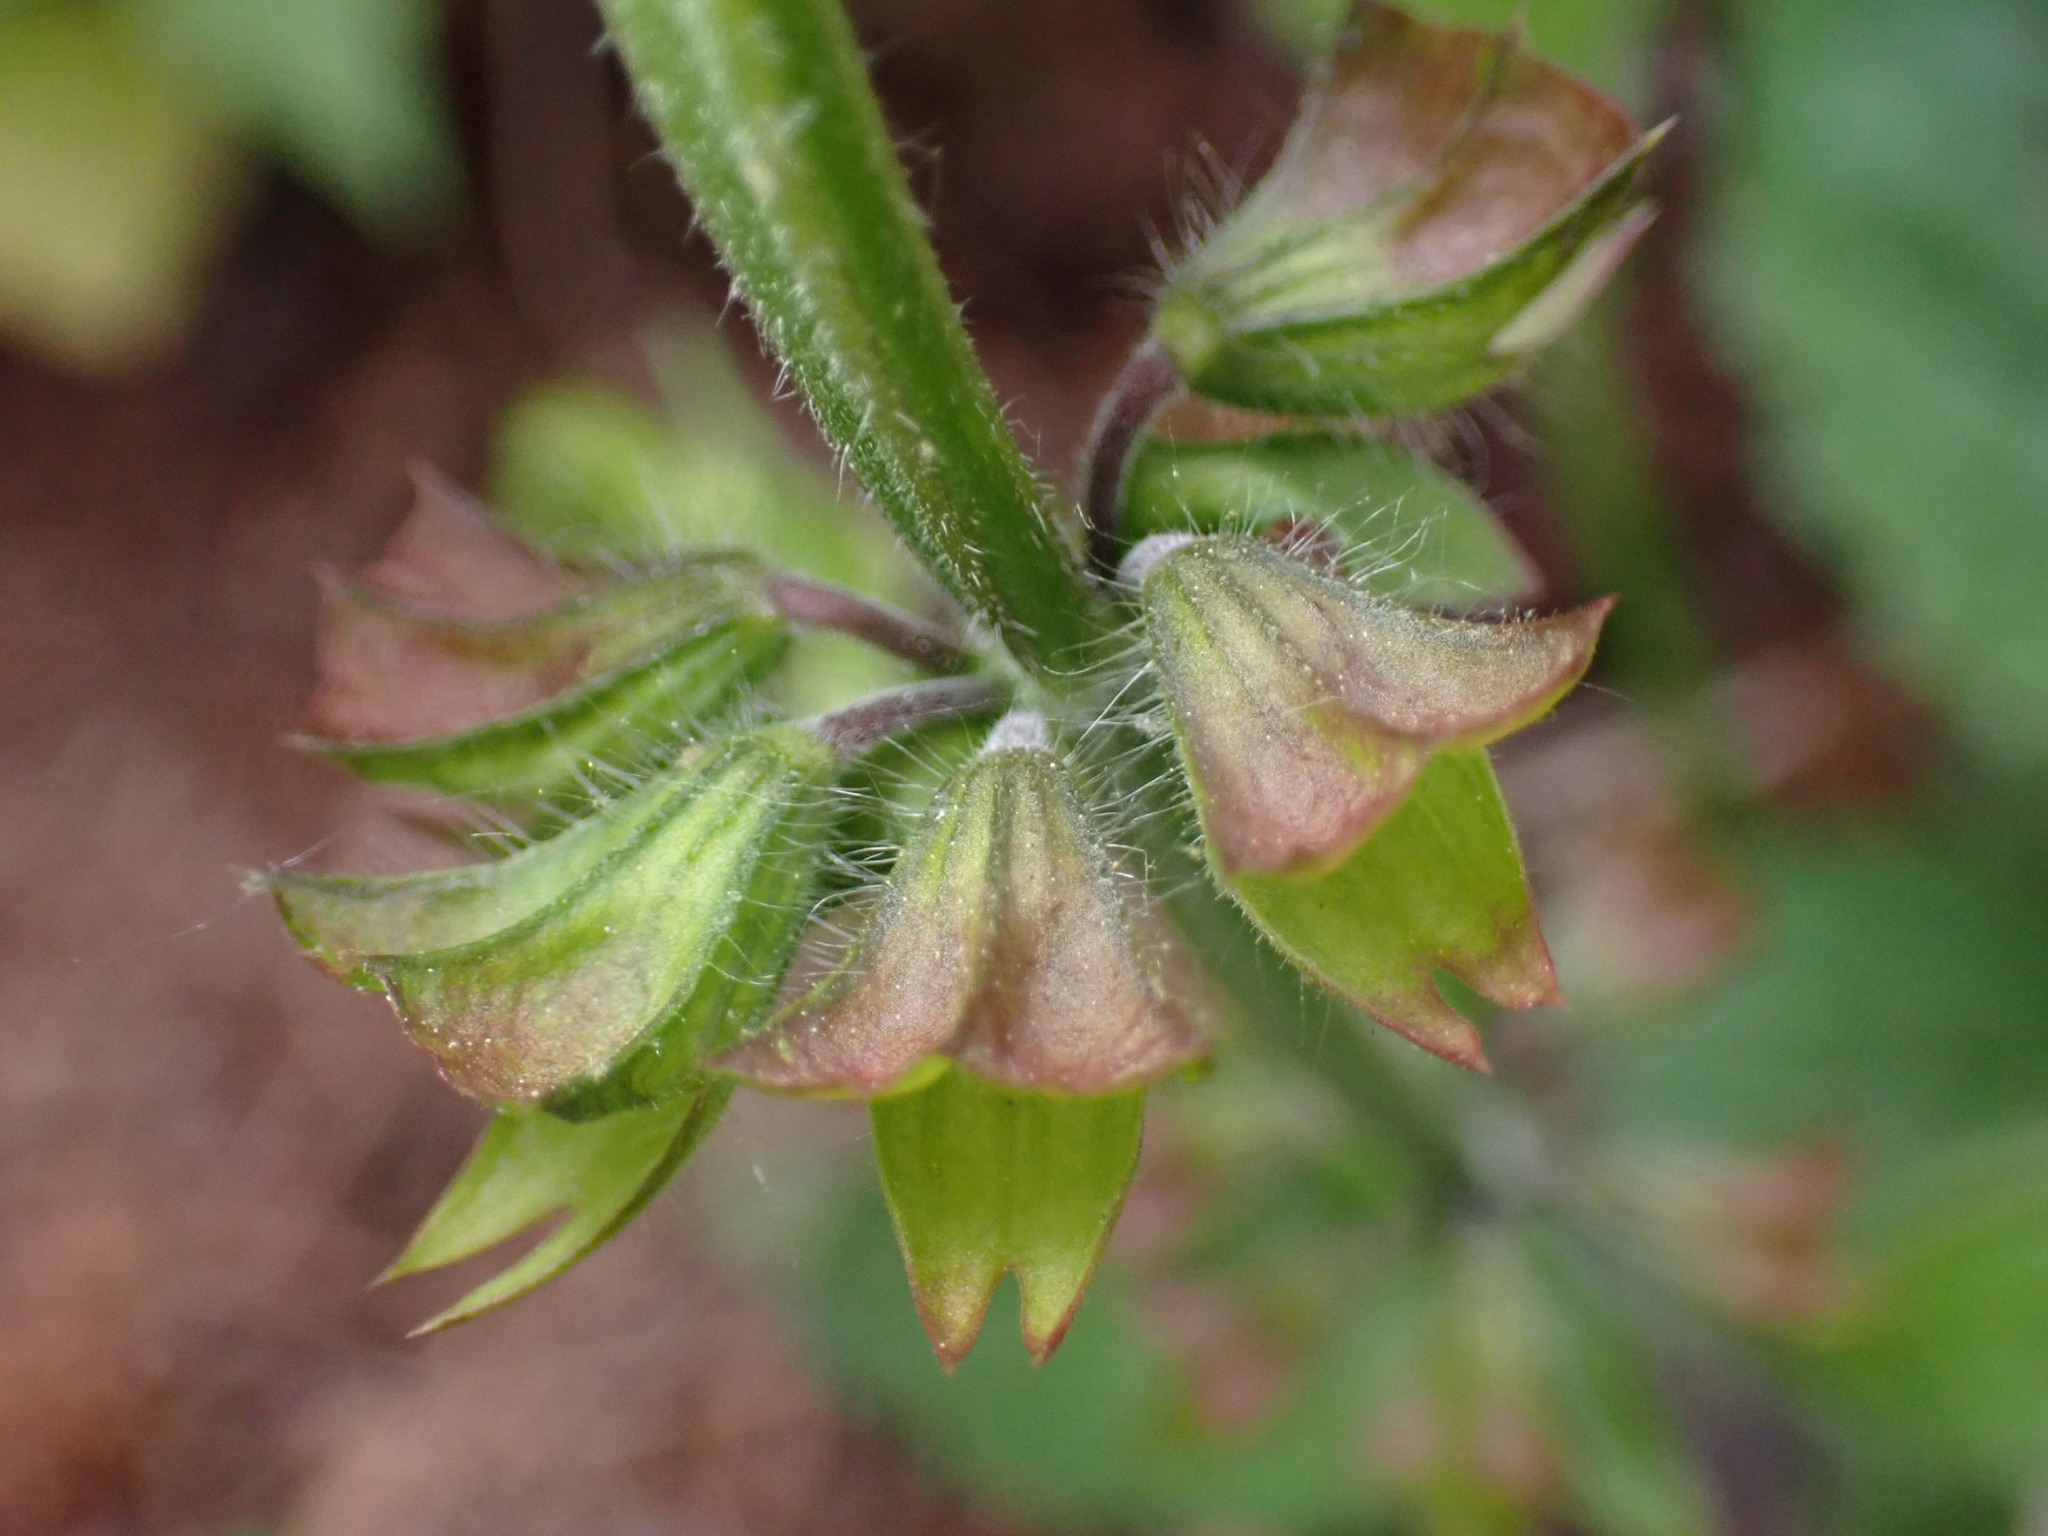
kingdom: Plantae
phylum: Tracheophyta
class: Magnoliopsida
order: Lamiales
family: Lamiaceae
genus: Salvia
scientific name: Salvia lyrata
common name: Cancerweed
